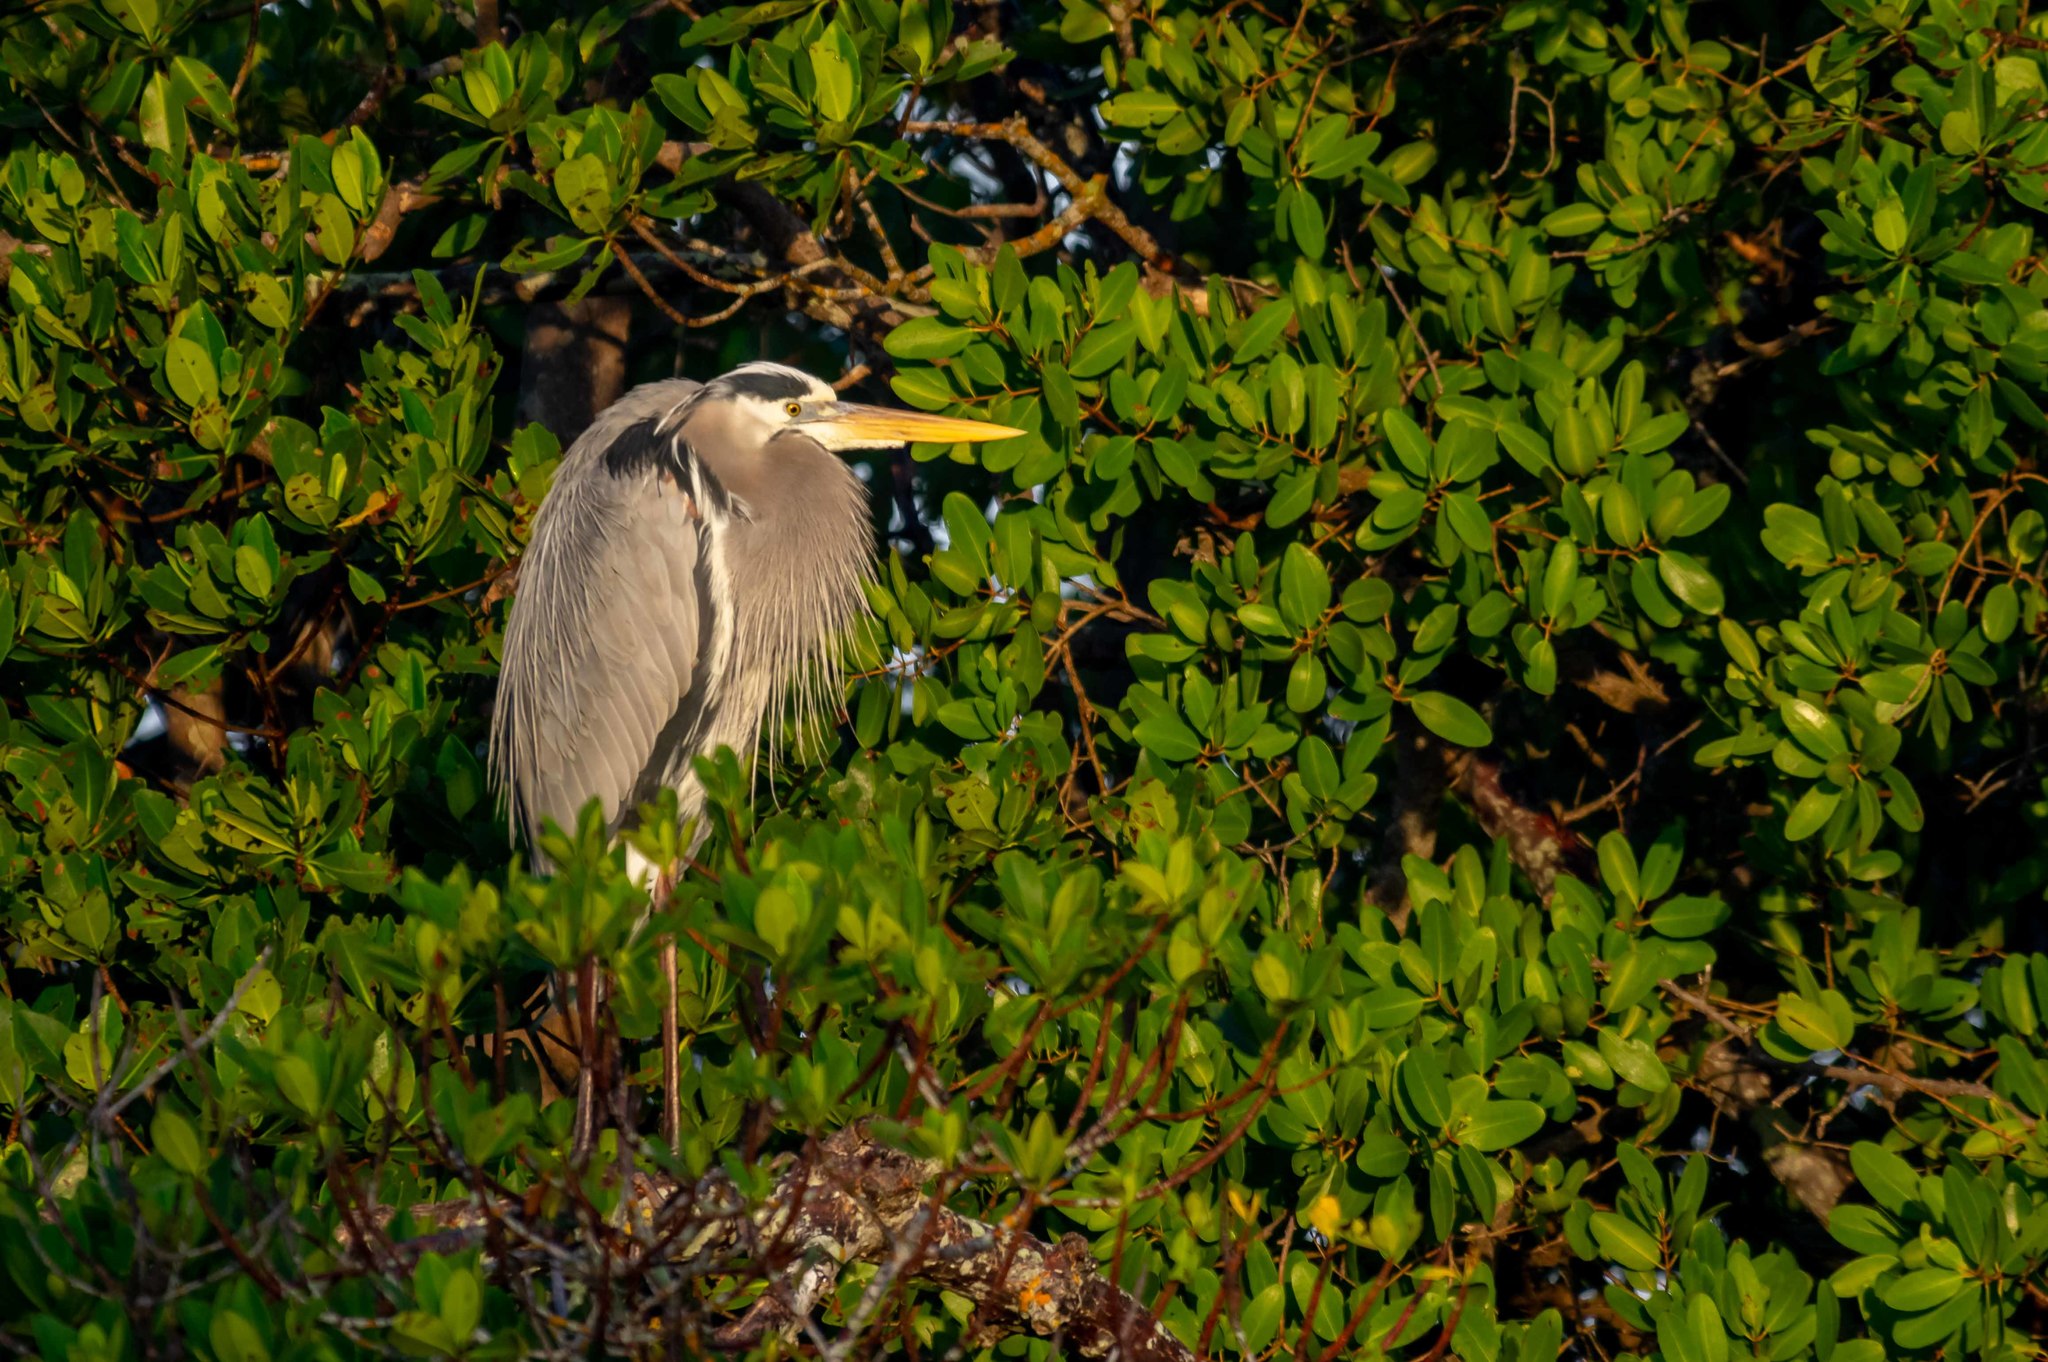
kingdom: Animalia
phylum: Chordata
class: Aves
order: Pelecaniformes
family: Ardeidae
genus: Ardea
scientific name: Ardea herodias
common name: Great blue heron
